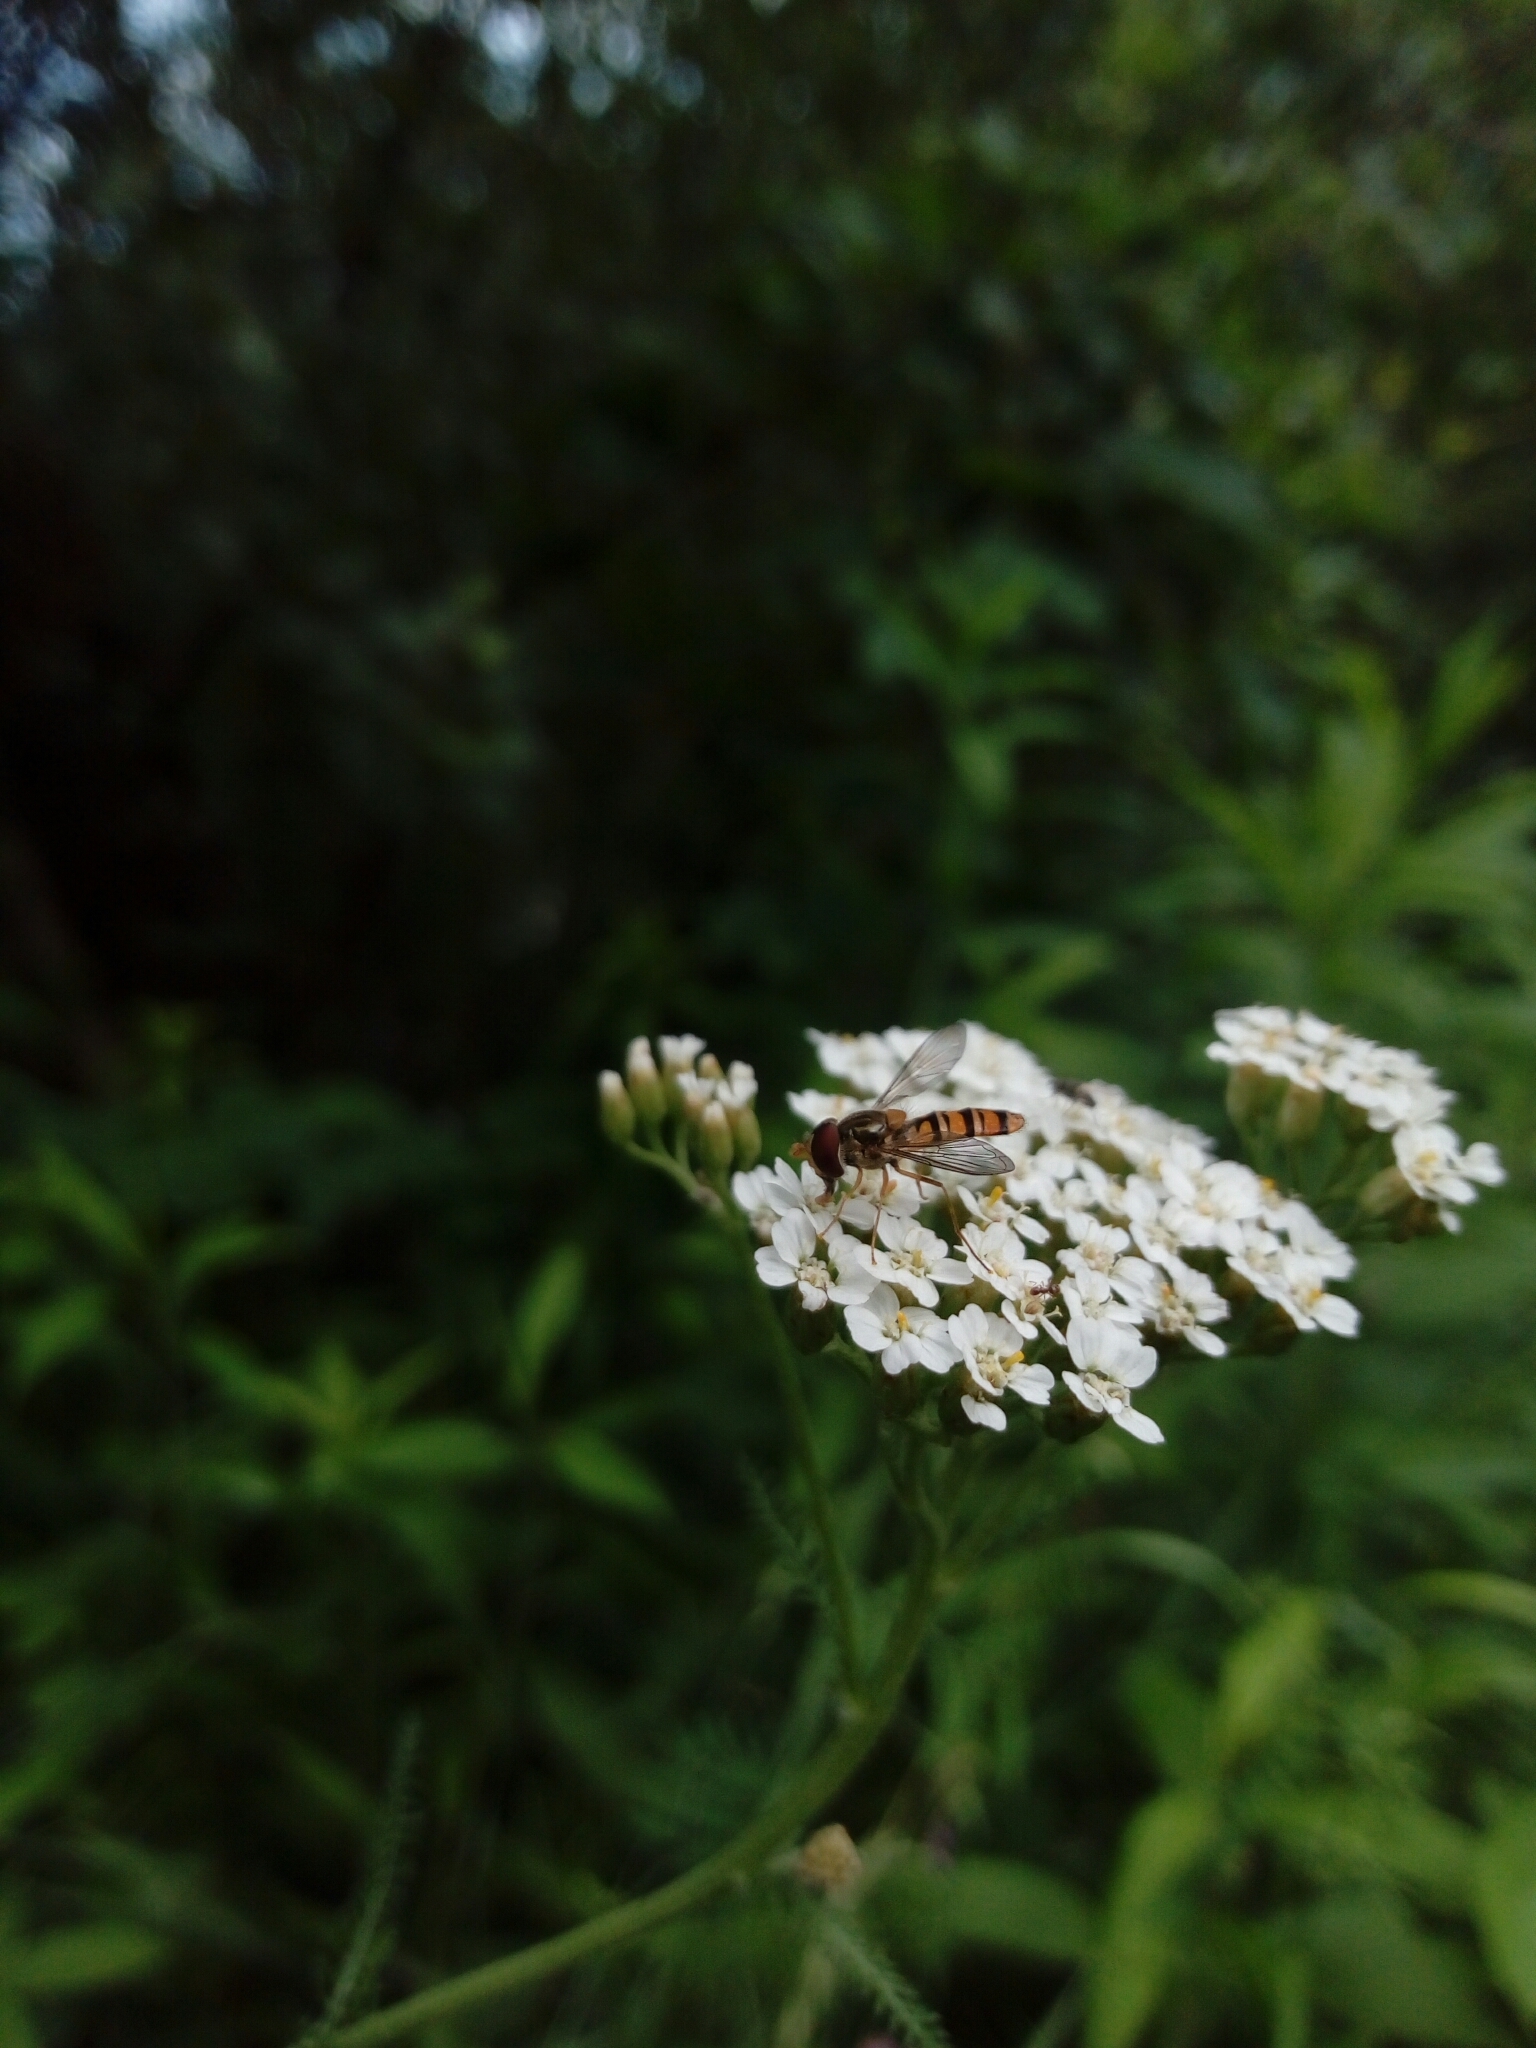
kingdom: Animalia
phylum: Arthropoda
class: Insecta
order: Diptera
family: Syrphidae
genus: Episyrphus
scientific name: Episyrphus balteatus
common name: Marmalade hoverfly
